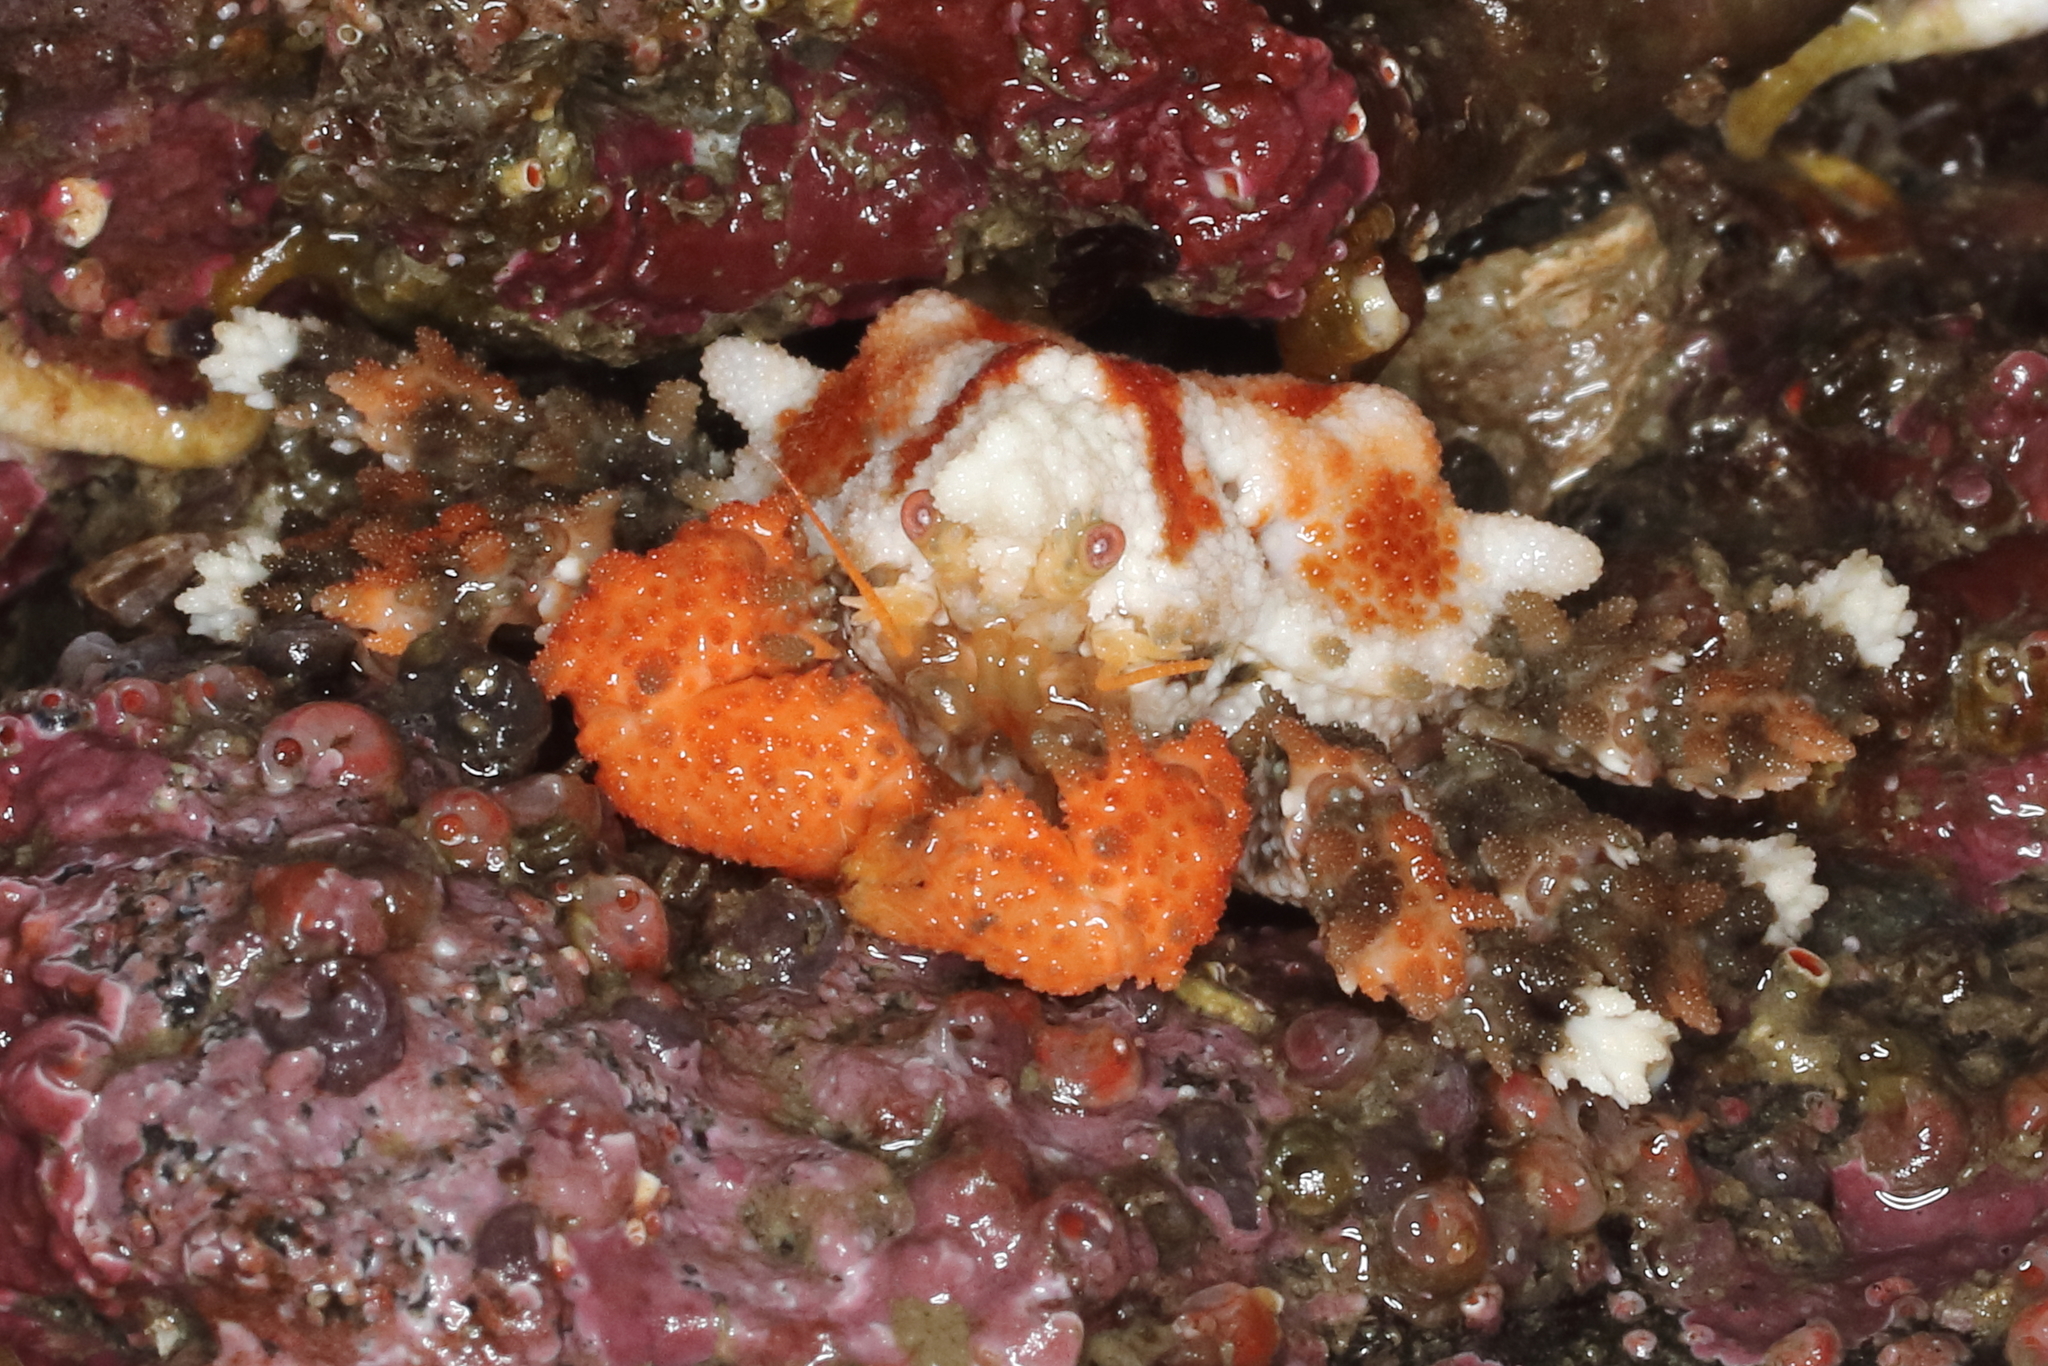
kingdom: Animalia
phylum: Arthropoda
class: Malacostraca
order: Decapoda
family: Lithodidae
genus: Phyllolithodes
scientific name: Phyllolithodes papillosus
